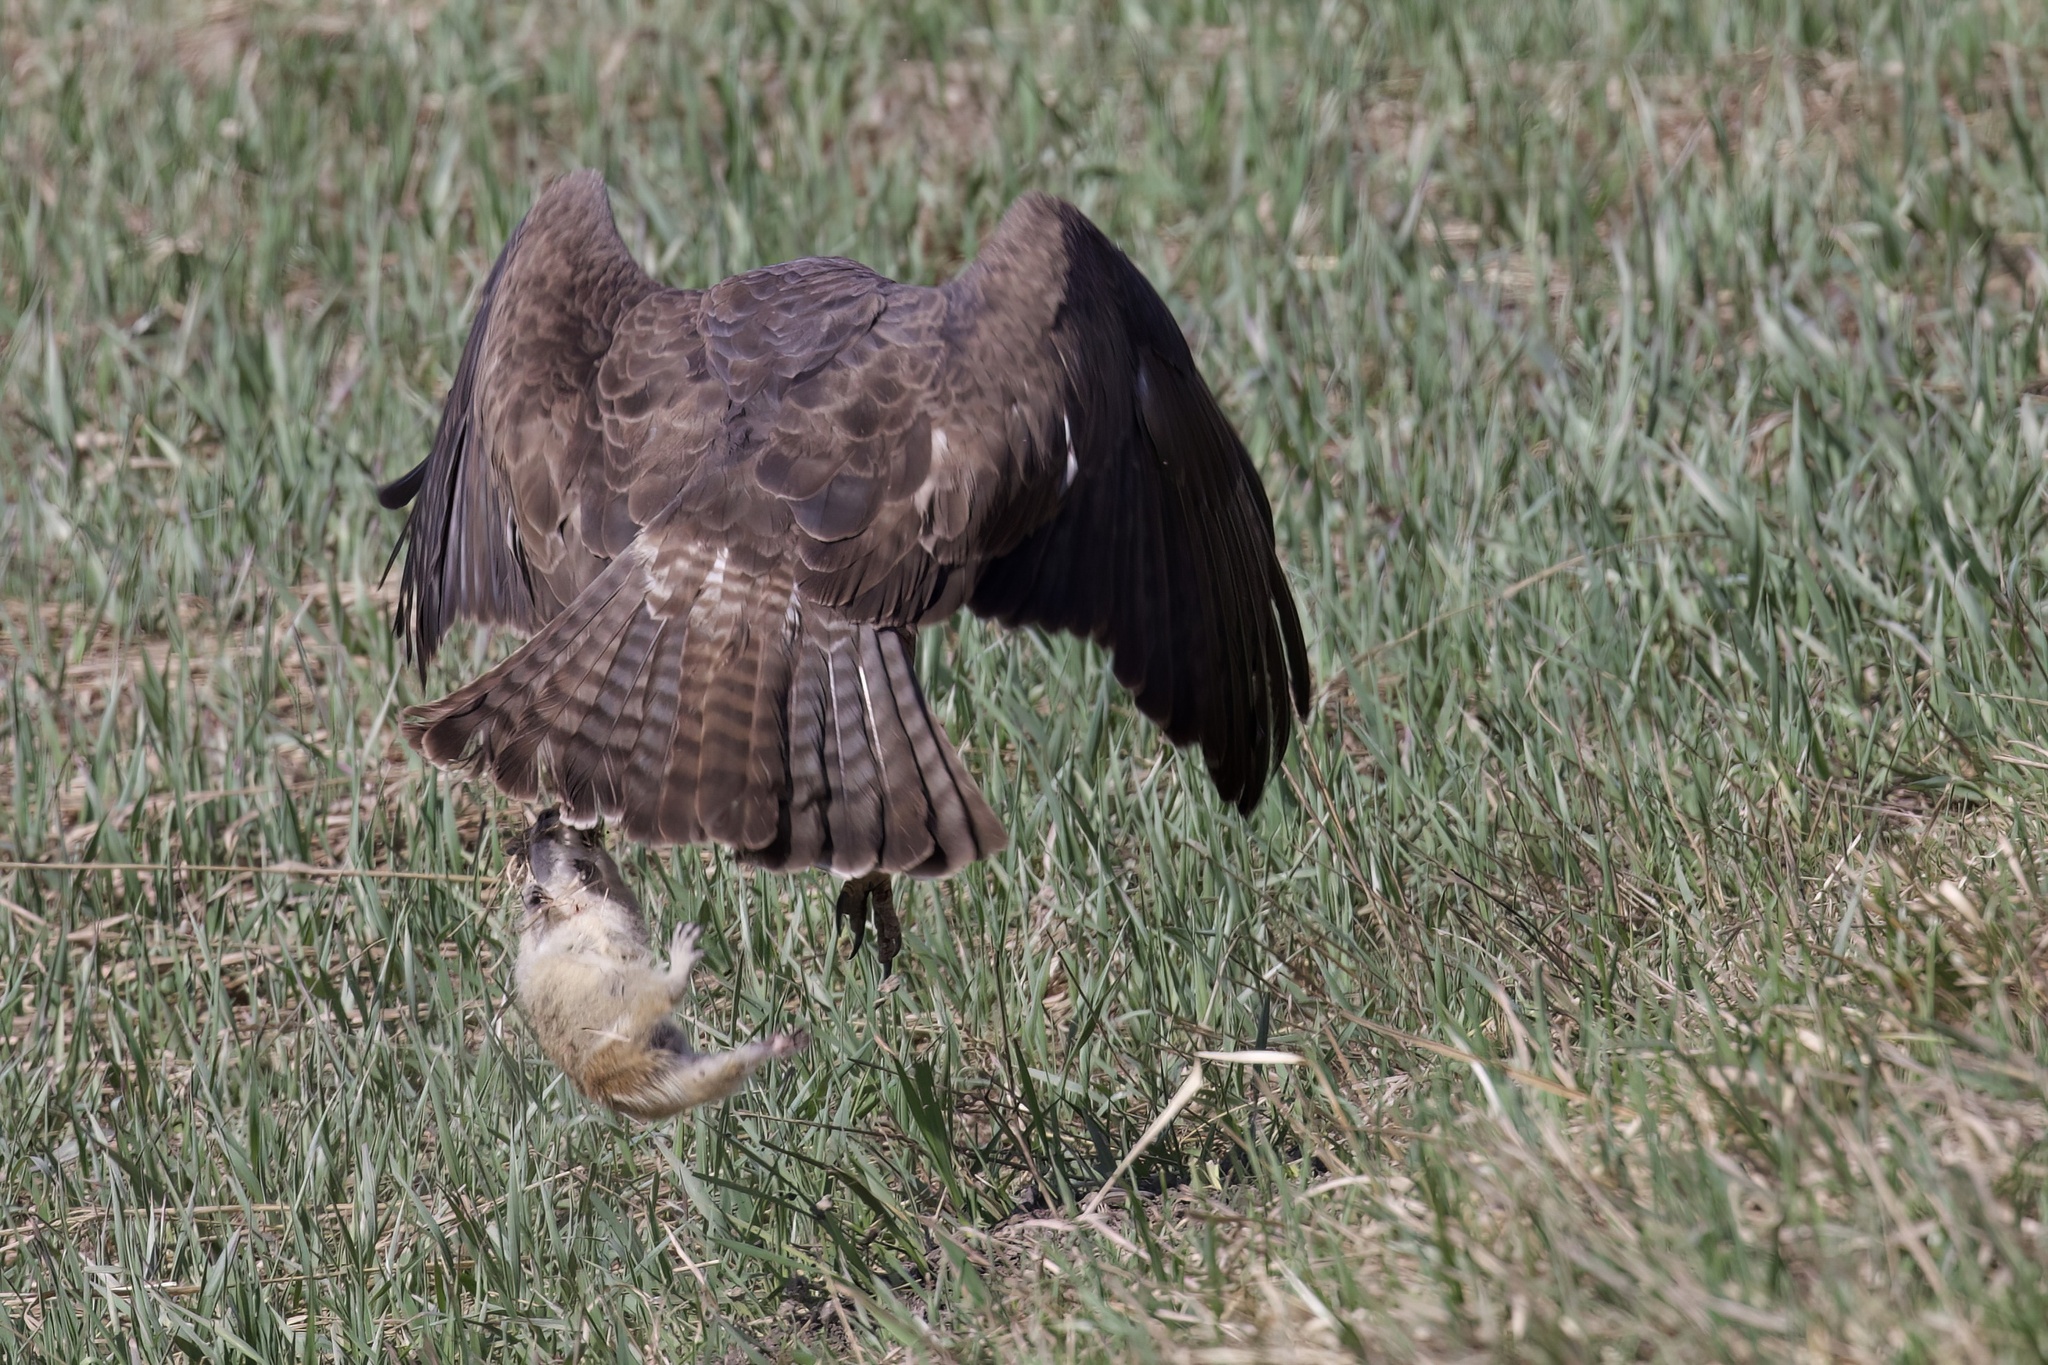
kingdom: Animalia
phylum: Chordata
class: Mammalia
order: Rodentia
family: Sciuridae
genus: Urocitellus
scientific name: Urocitellus richardsonii
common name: Richardson's ground squirrel
